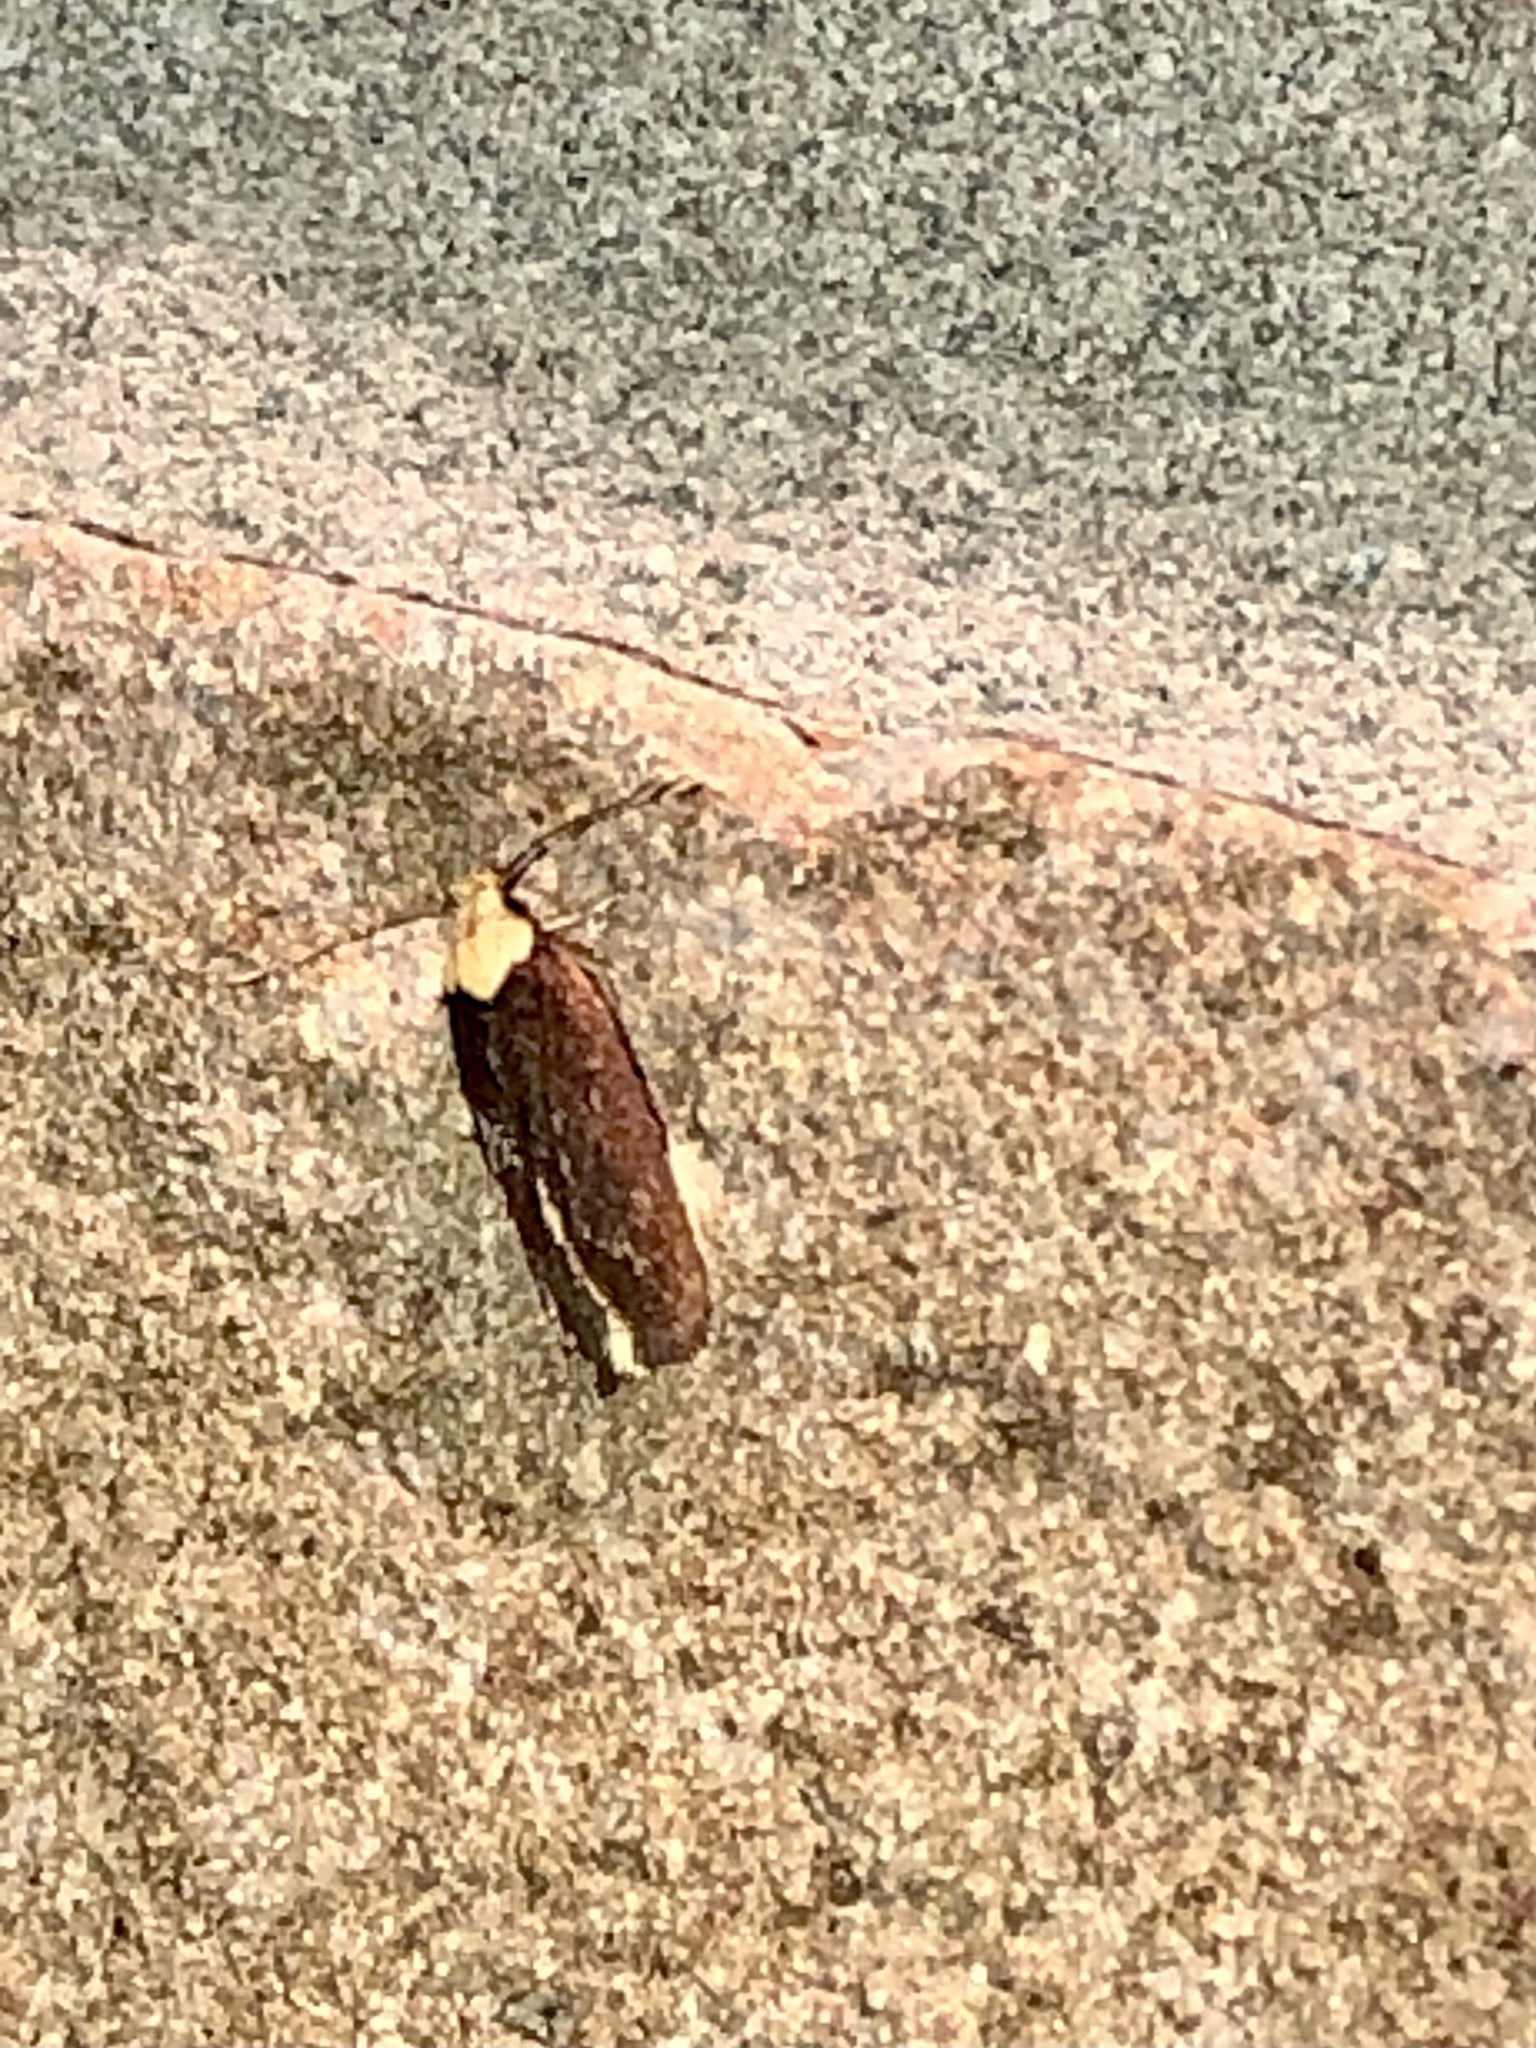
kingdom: Animalia
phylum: Arthropoda
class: Insecta
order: Lepidoptera
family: Depressariidae
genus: Depressaria
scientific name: Depressaria depressana
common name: Lost flat-body
